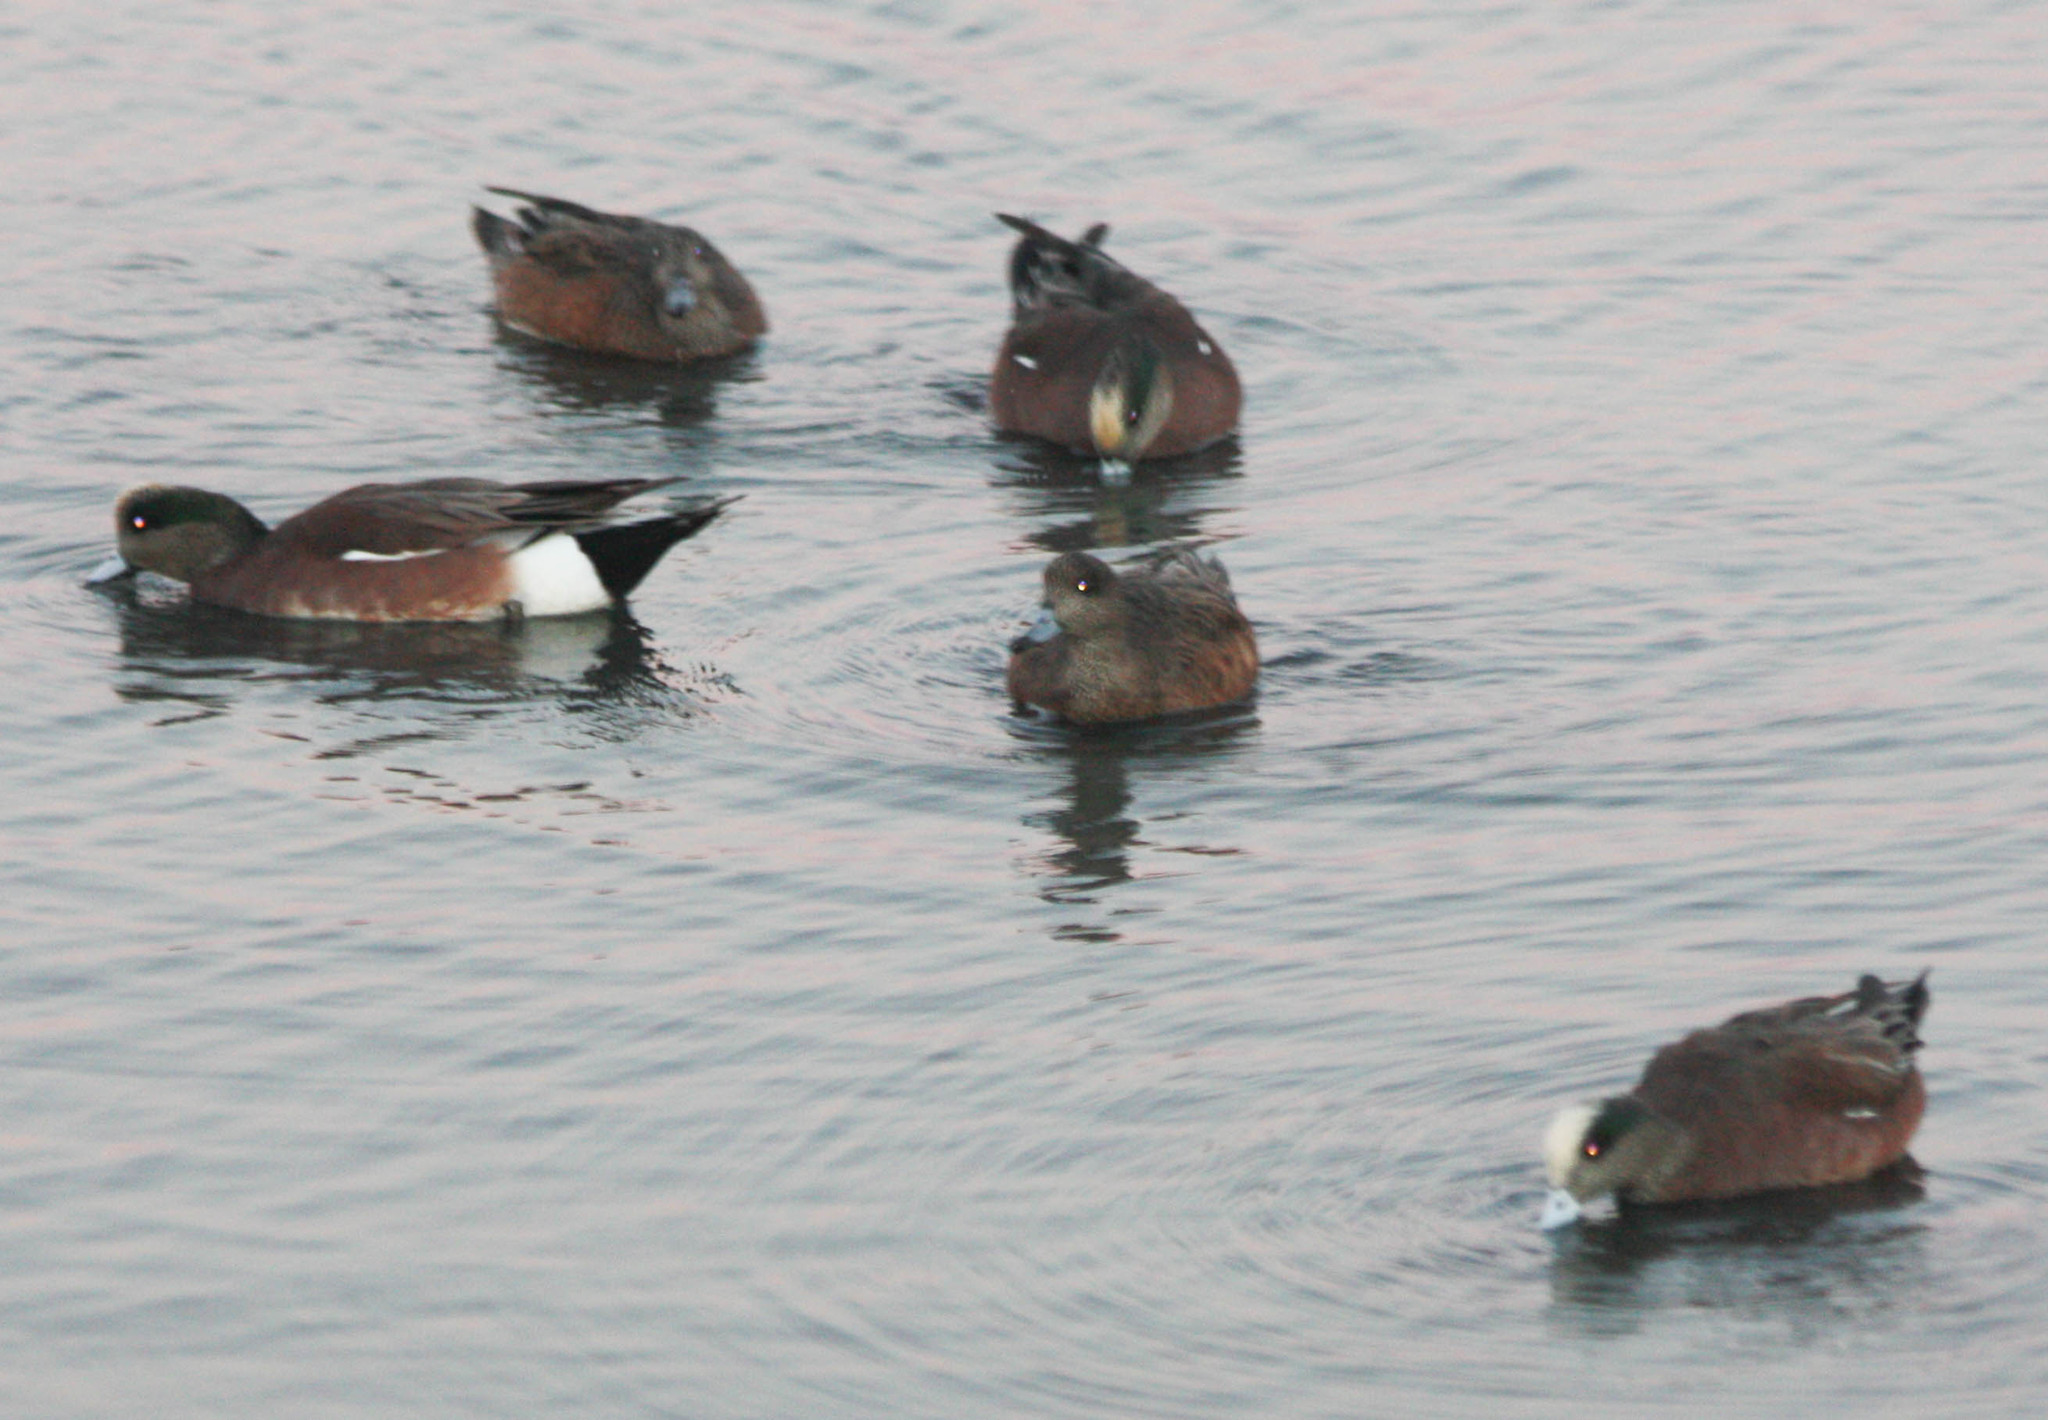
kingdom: Animalia
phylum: Chordata
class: Aves
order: Anseriformes
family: Anatidae
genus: Mareca
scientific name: Mareca americana
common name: American wigeon
